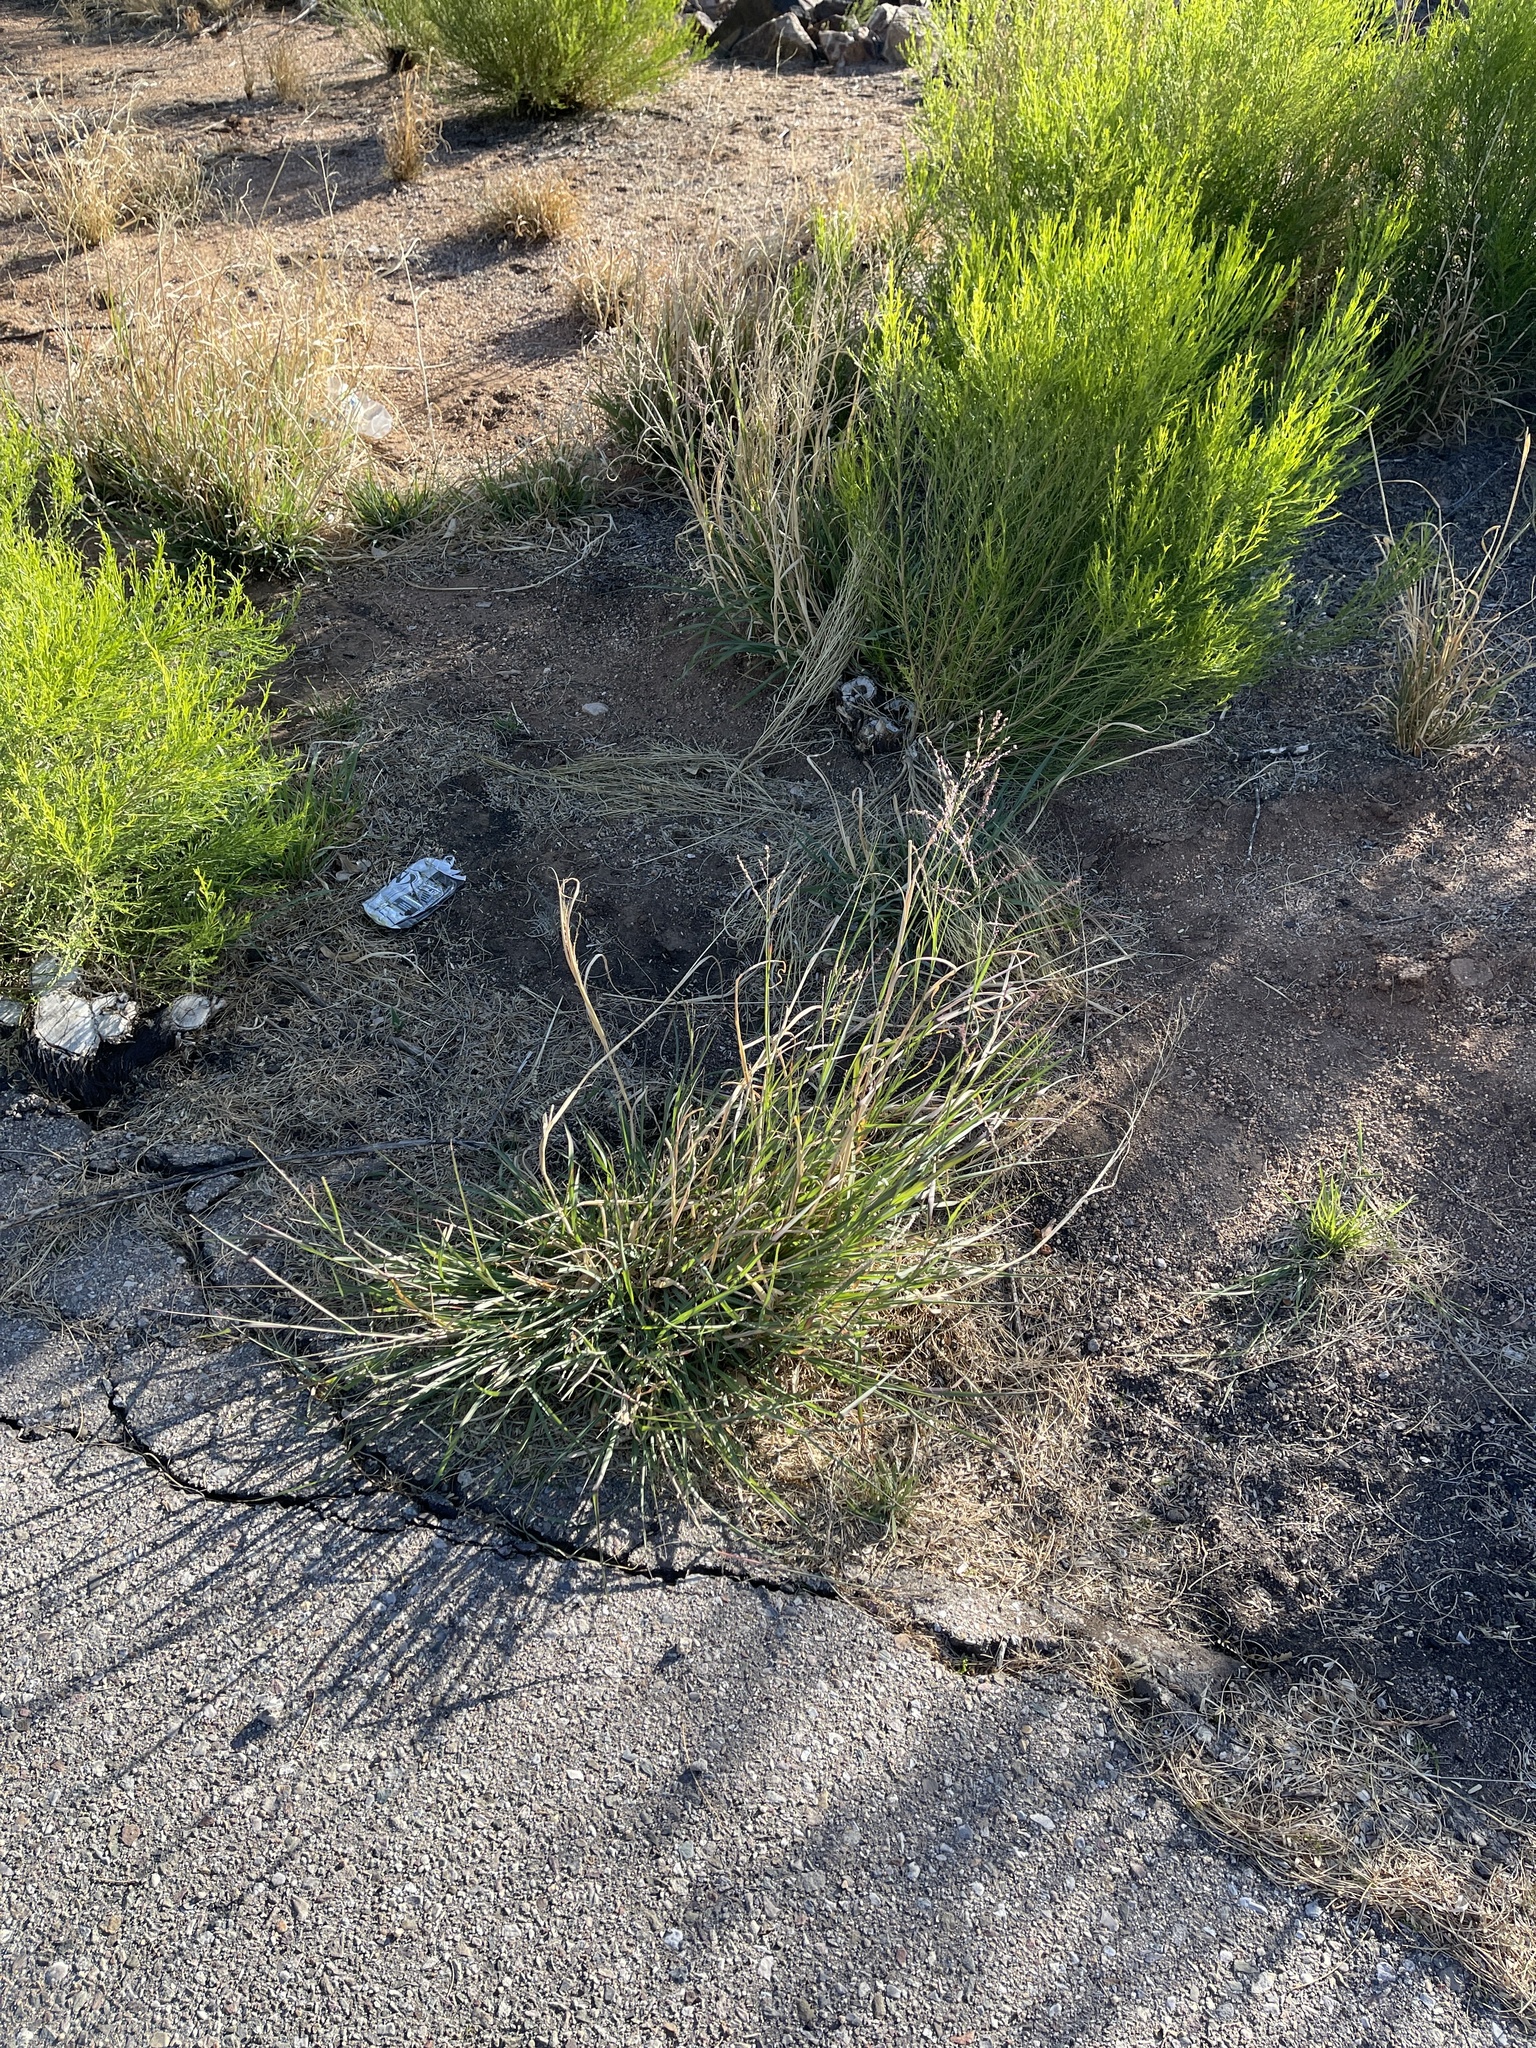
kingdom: Plantae
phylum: Tracheophyta
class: Liliopsida
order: Poales
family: Poaceae
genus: Sorghum
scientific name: Sorghum halepense
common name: Johnson-grass
